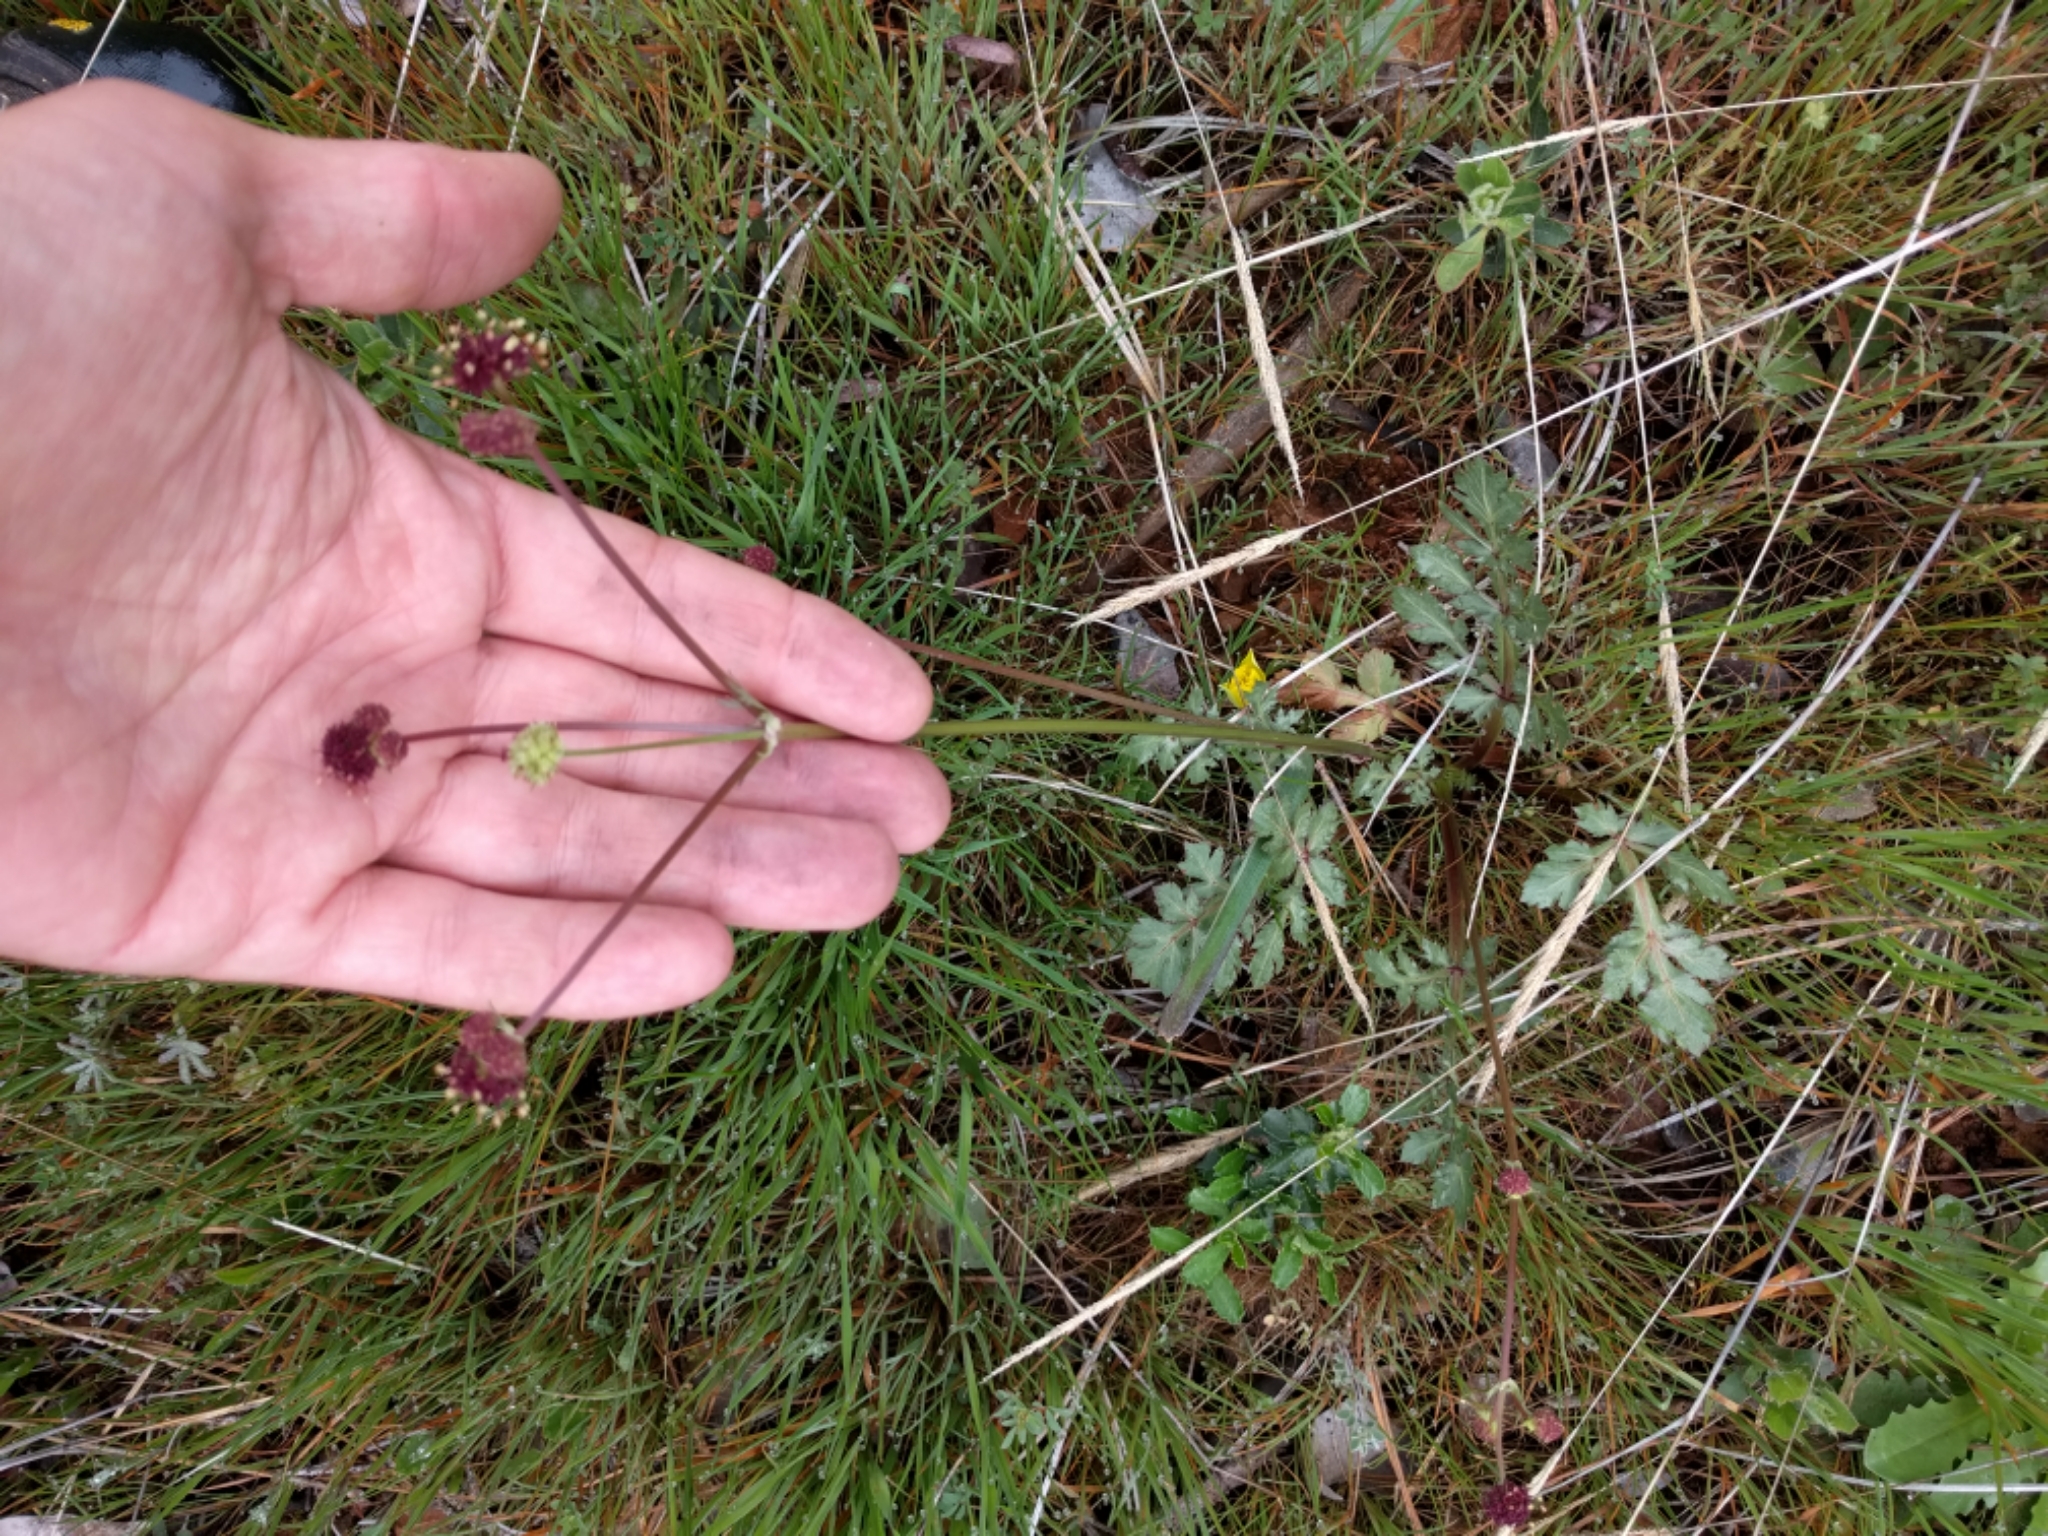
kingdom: Plantae
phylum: Tracheophyta
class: Magnoliopsida
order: Apiales
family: Apiaceae
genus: Sanicula
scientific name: Sanicula bipinnatifida
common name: Shoe-buttons
